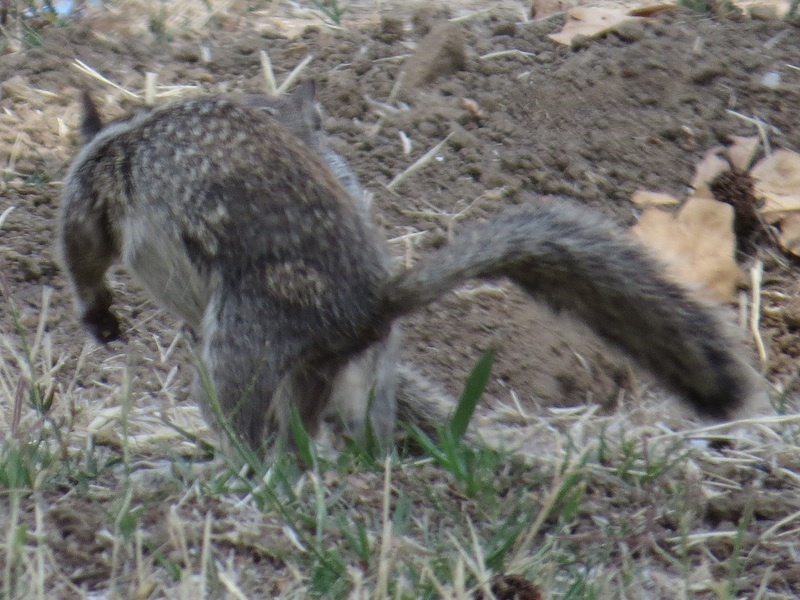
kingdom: Animalia
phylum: Chordata
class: Mammalia
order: Rodentia
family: Sciuridae
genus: Otospermophilus
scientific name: Otospermophilus beecheyi
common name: California ground squirrel
